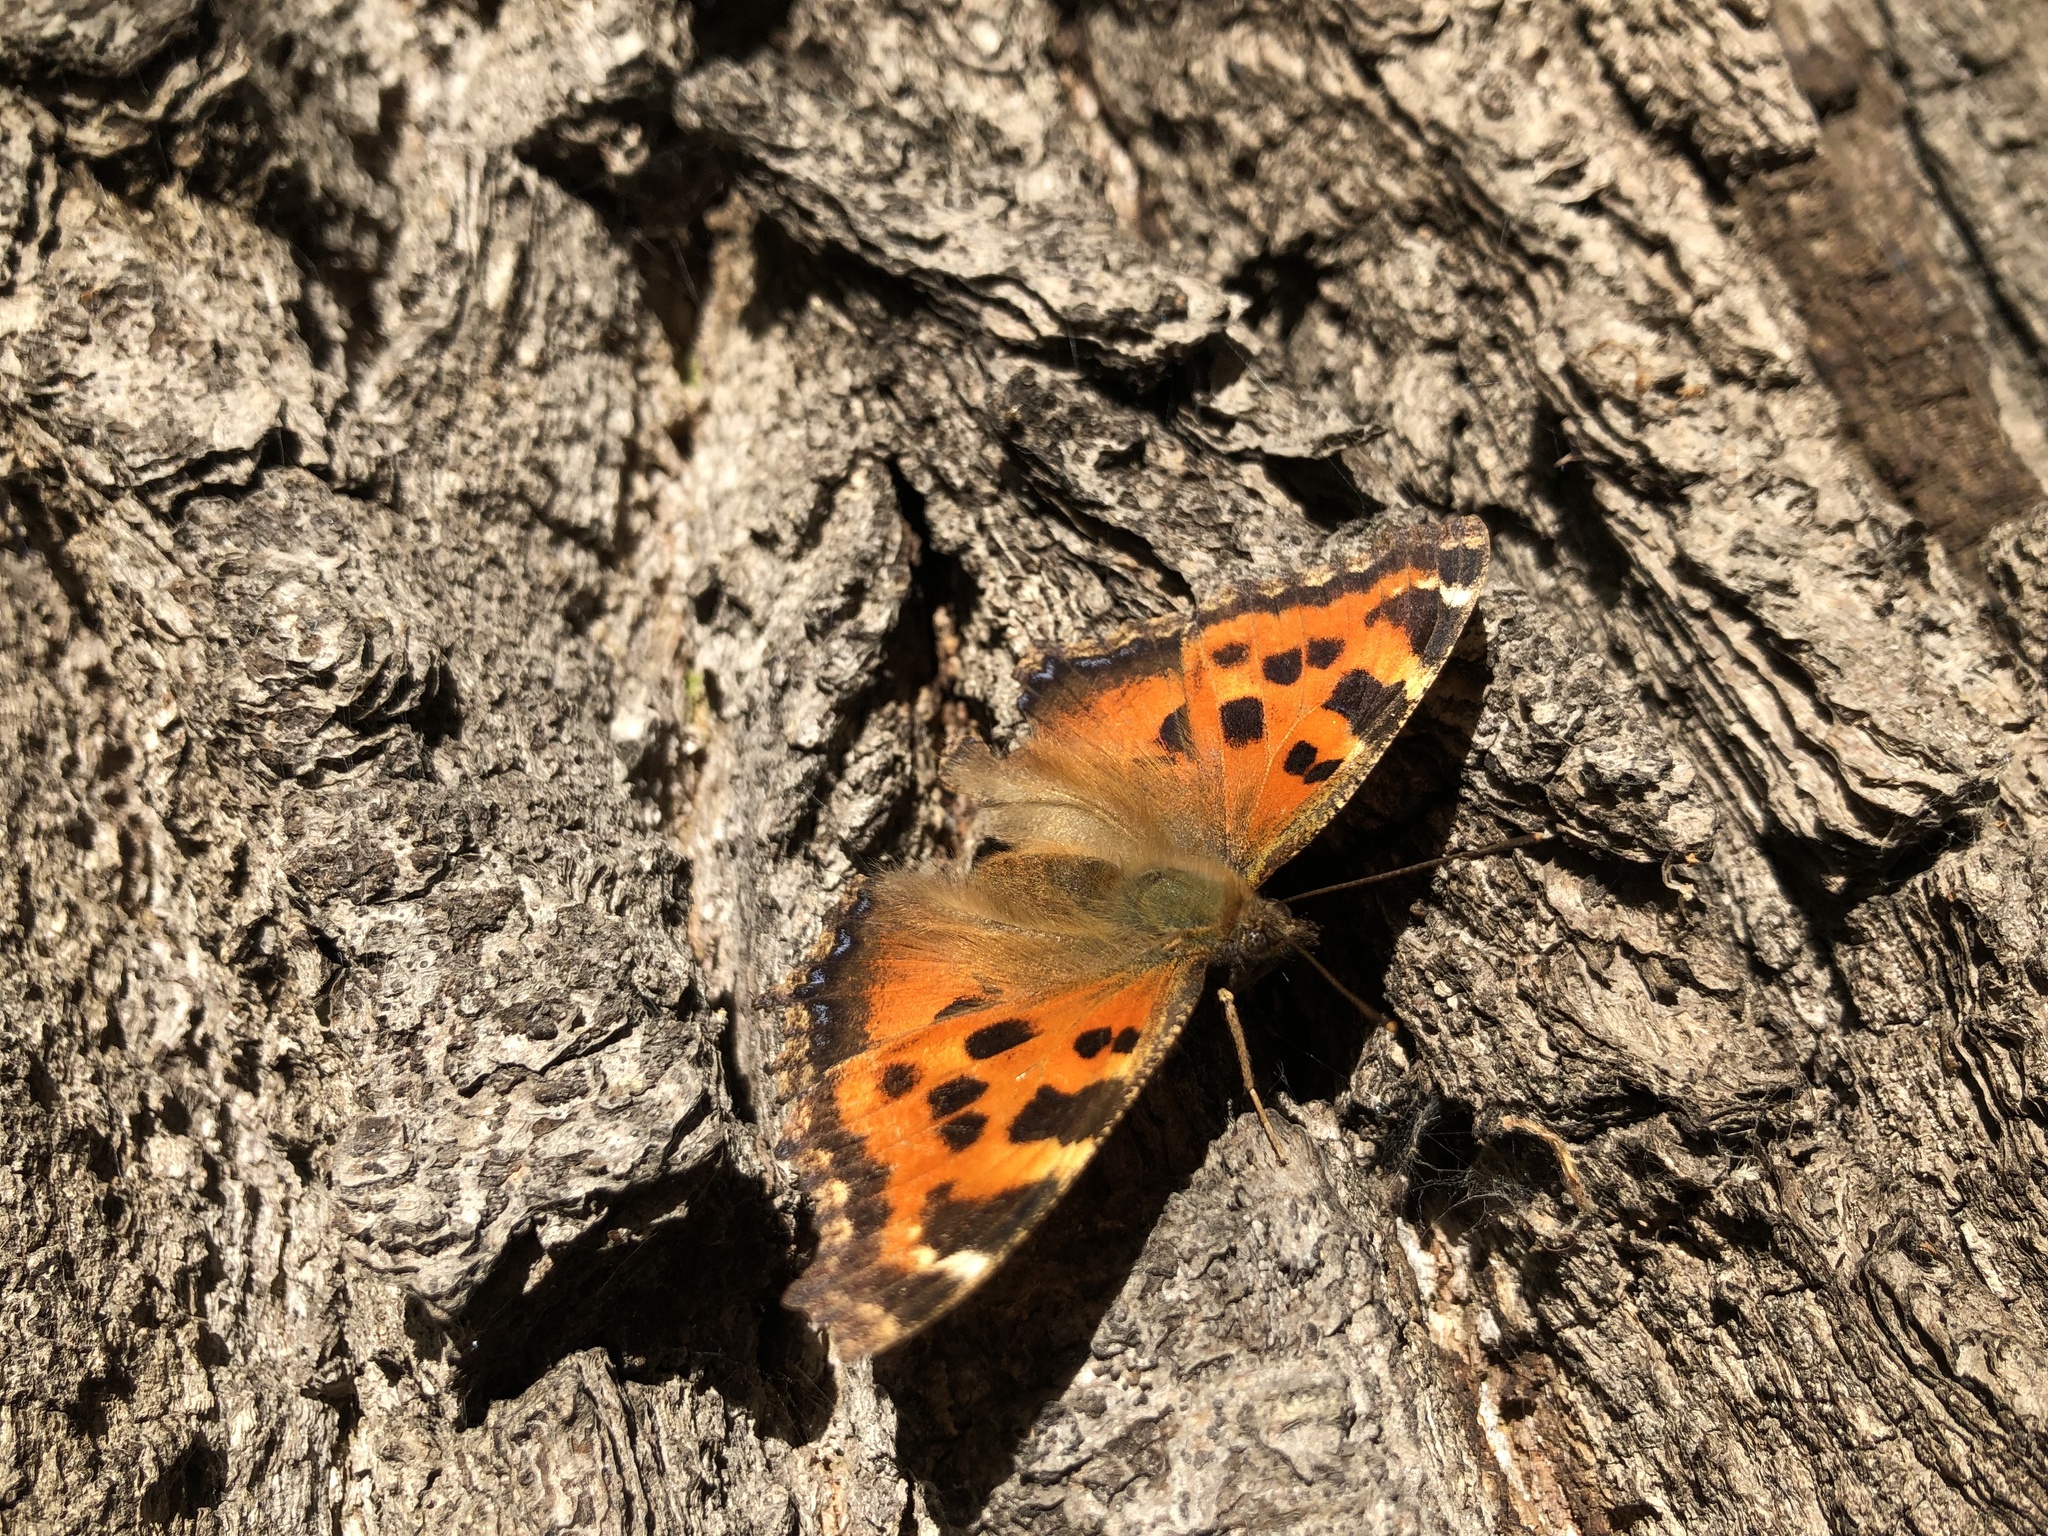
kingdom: Animalia
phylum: Arthropoda
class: Insecta
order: Lepidoptera
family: Nymphalidae
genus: Nymphalis
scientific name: Nymphalis xanthomelas
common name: Scarce tortoiseshell
